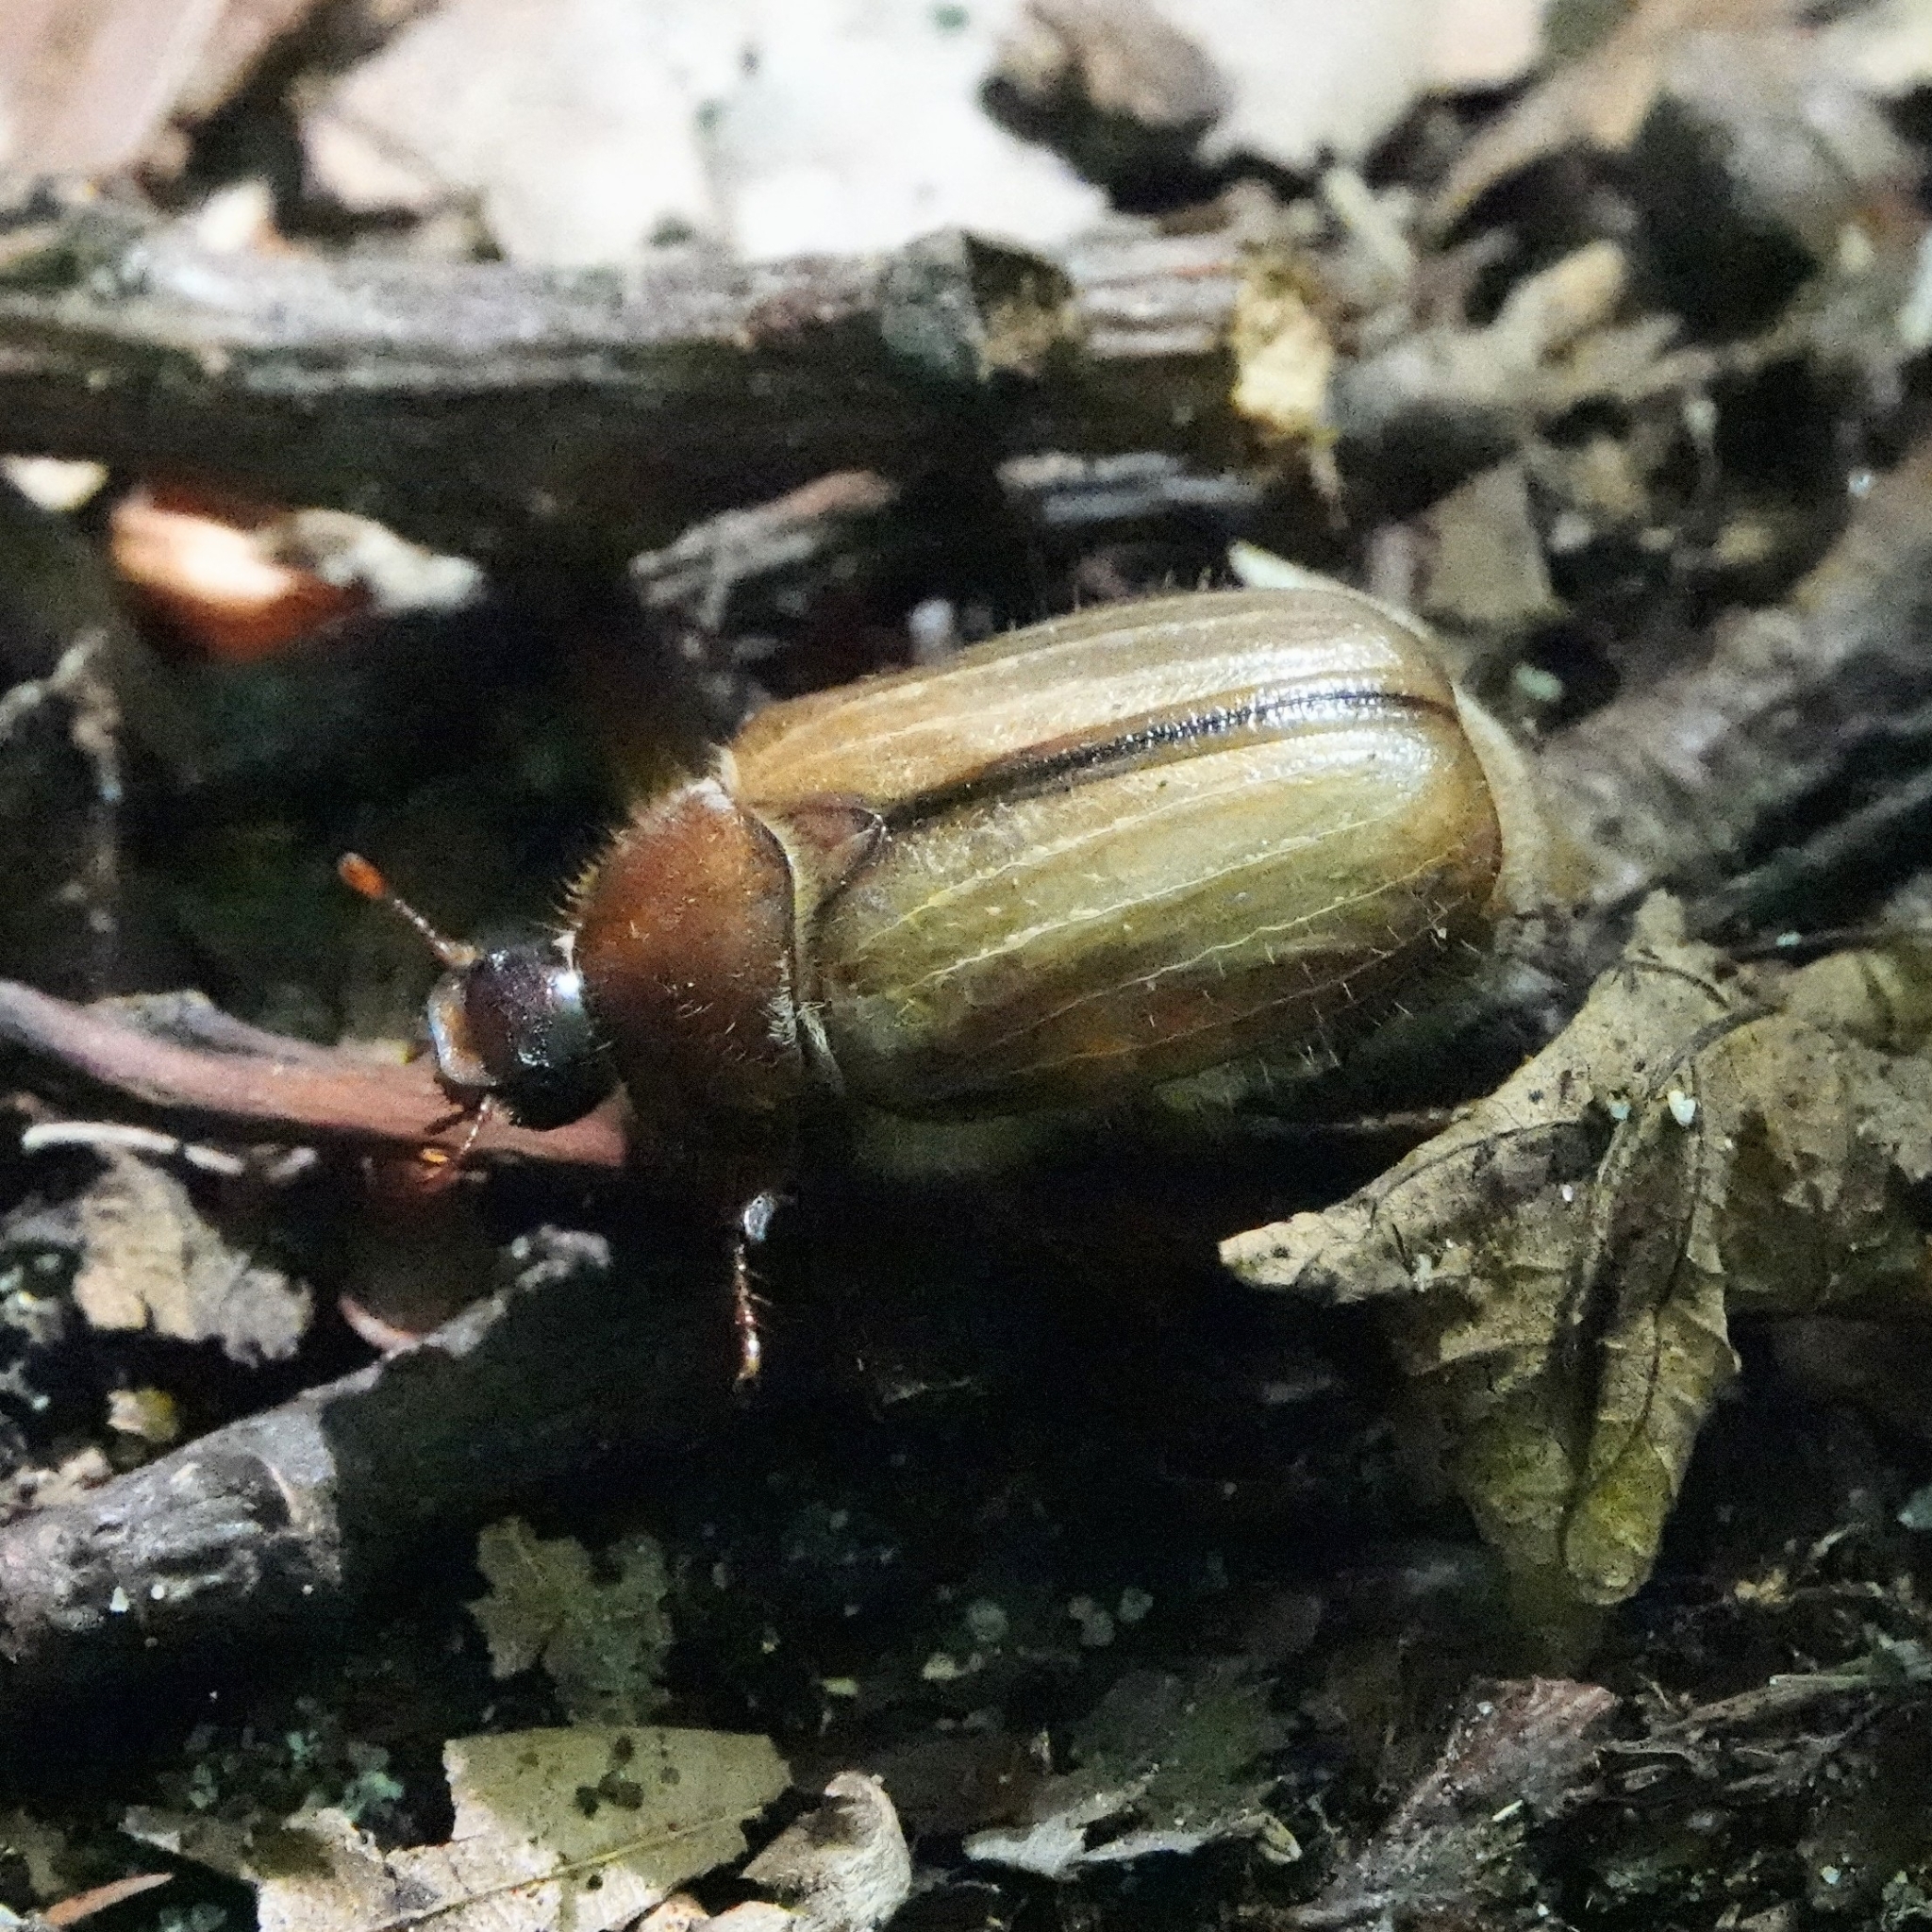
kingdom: Animalia
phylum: Arthropoda
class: Insecta
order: Coleoptera
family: Scarabaeidae
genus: Amphimallon
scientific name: Amphimallon solstitiale
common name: Summer chafer
